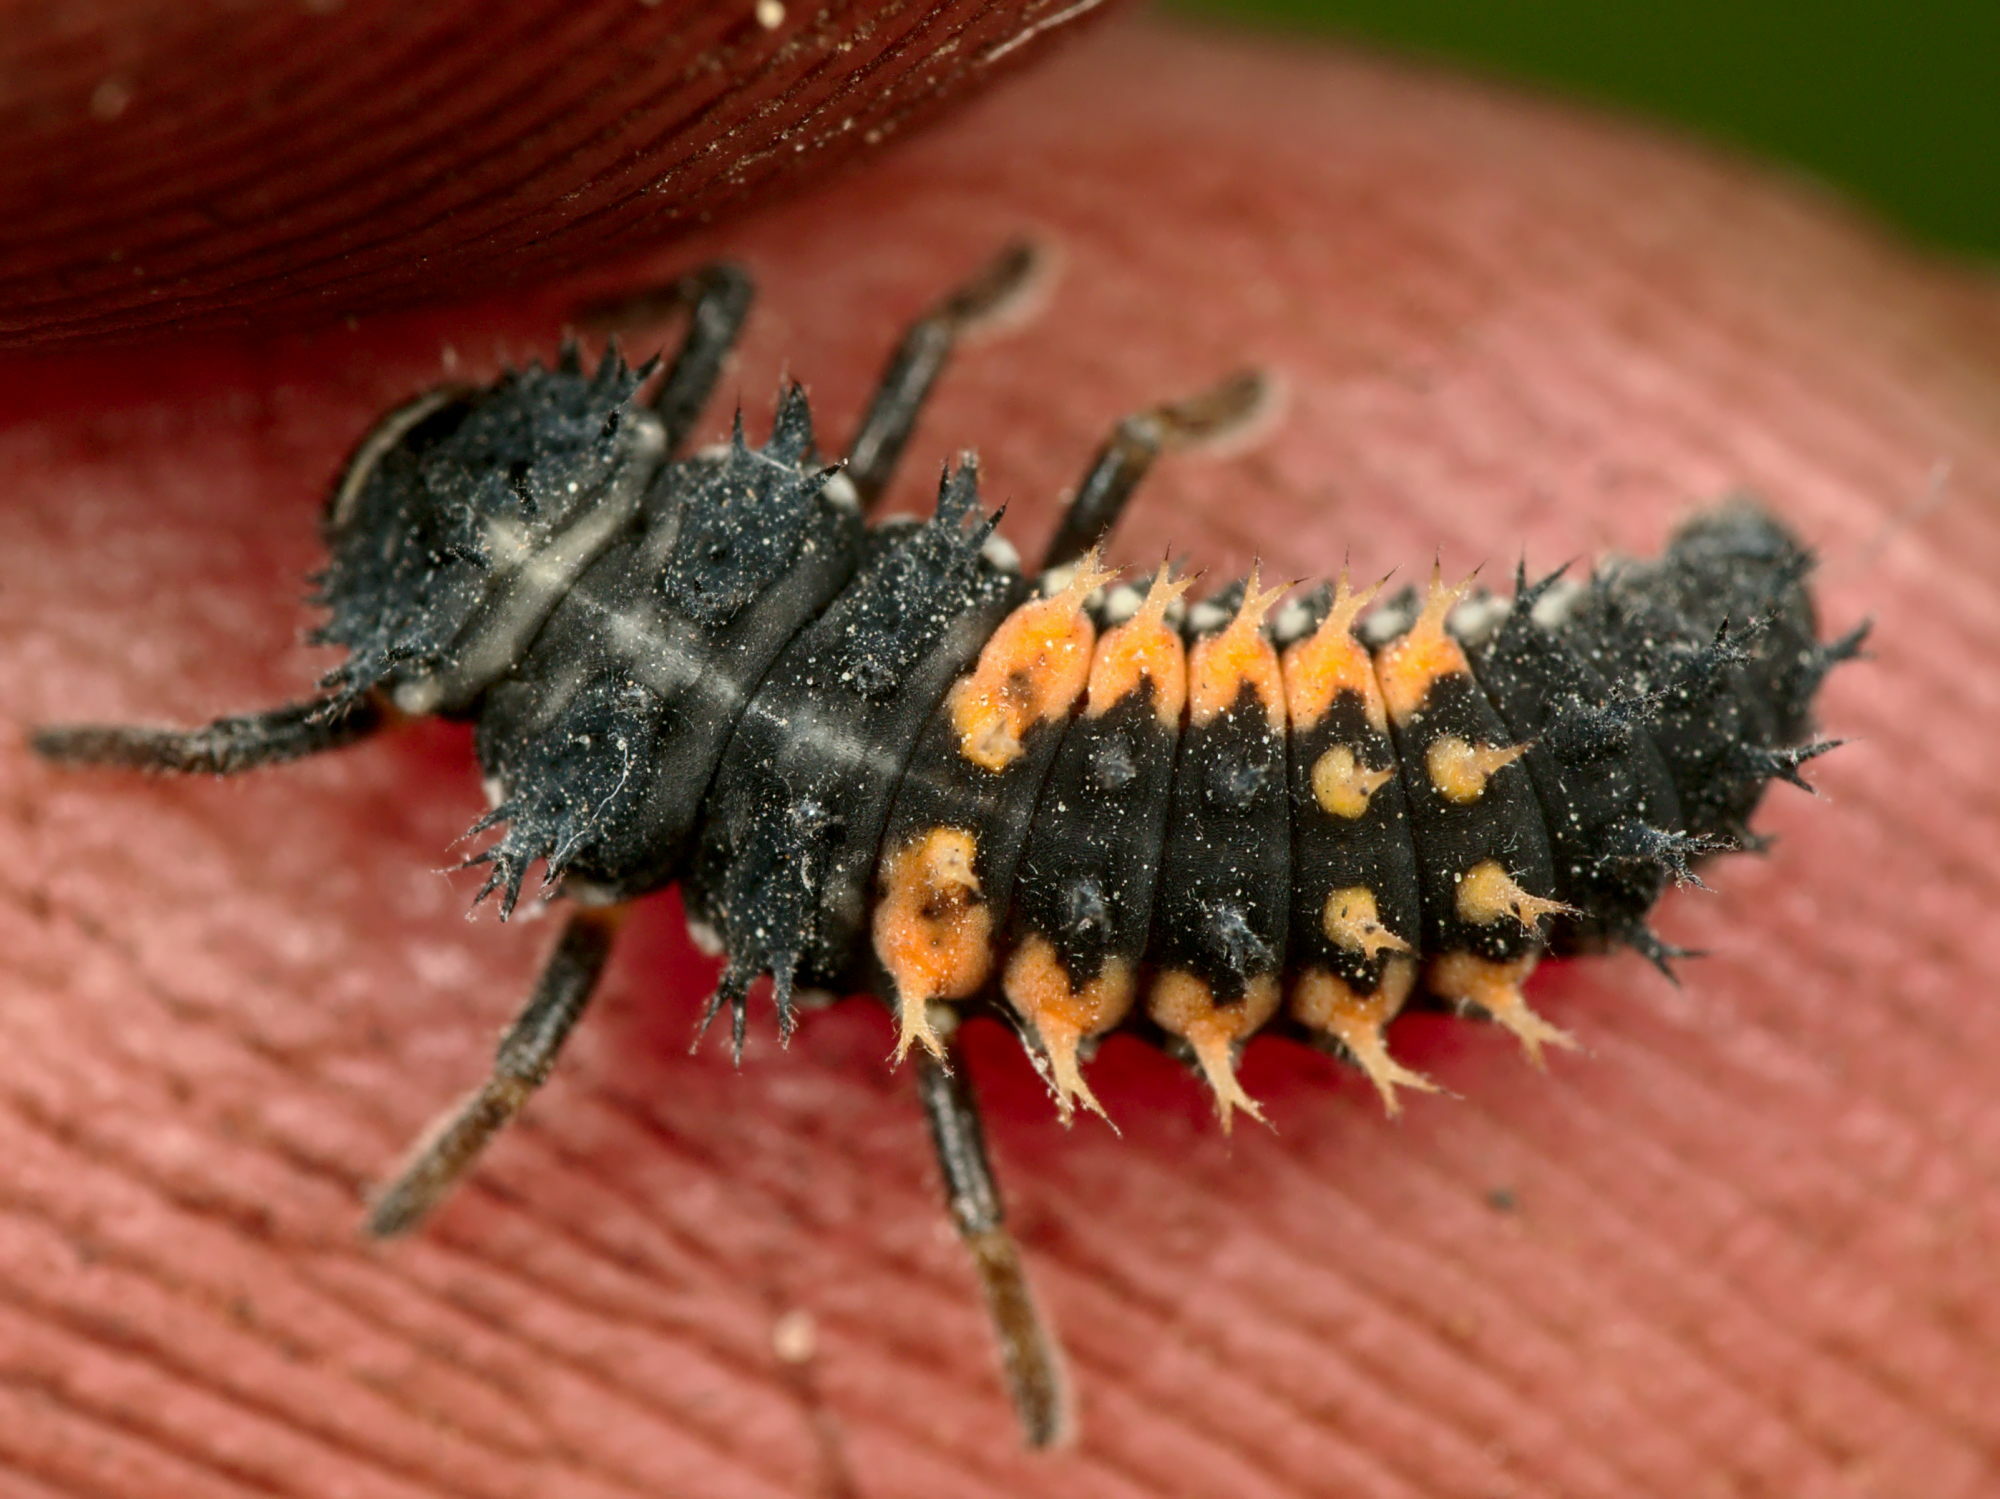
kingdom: Animalia
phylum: Arthropoda
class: Insecta
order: Coleoptera
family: Coccinellidae
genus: Harmonia
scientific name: Harmonia axyridis
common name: Harlequin ladybird
